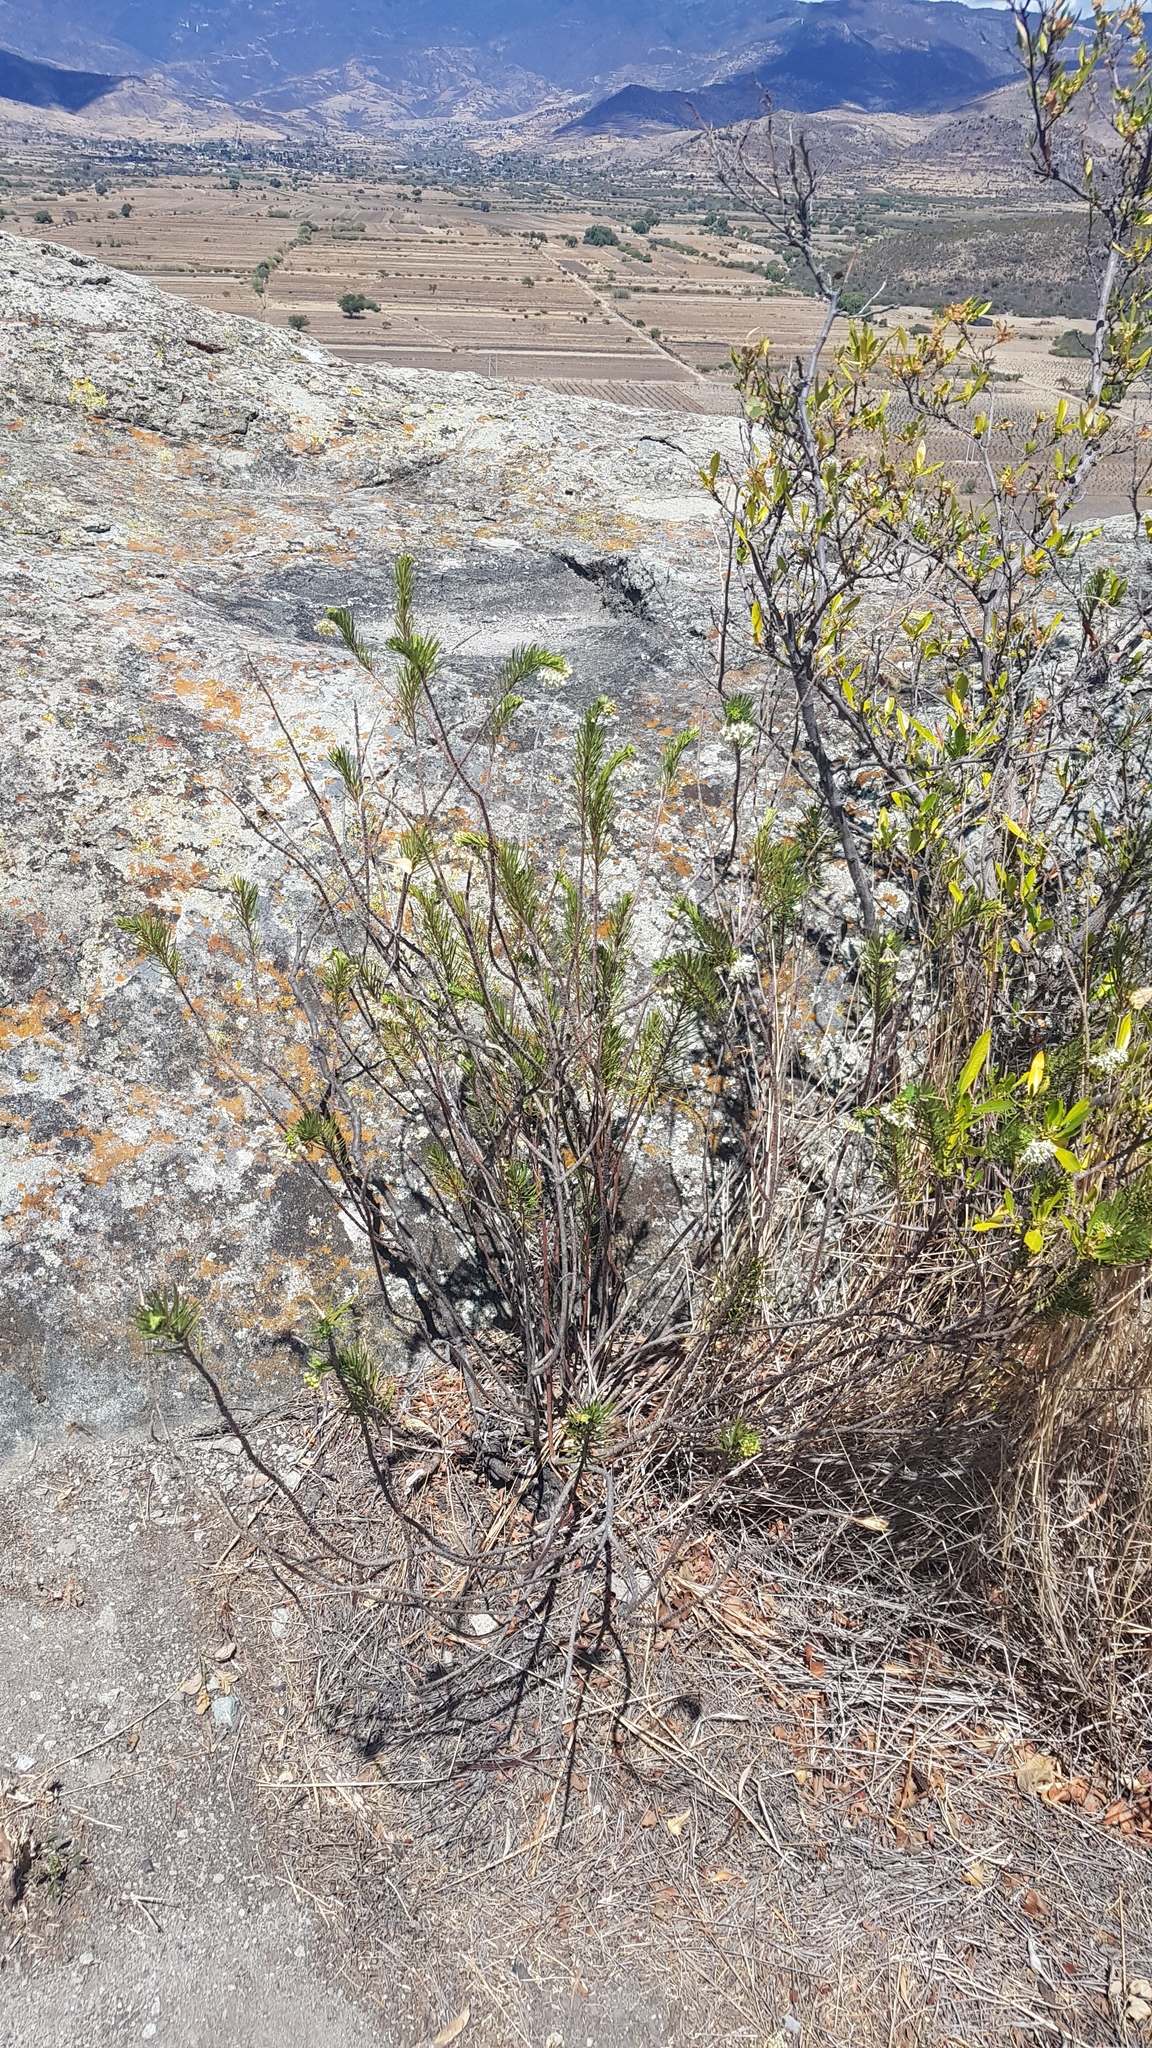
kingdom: Plantae
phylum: Tracheophyta
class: Magnoliopsida
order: Gentianales
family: Apocynaceae
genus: Asclepias
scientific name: Asclepias linaria
